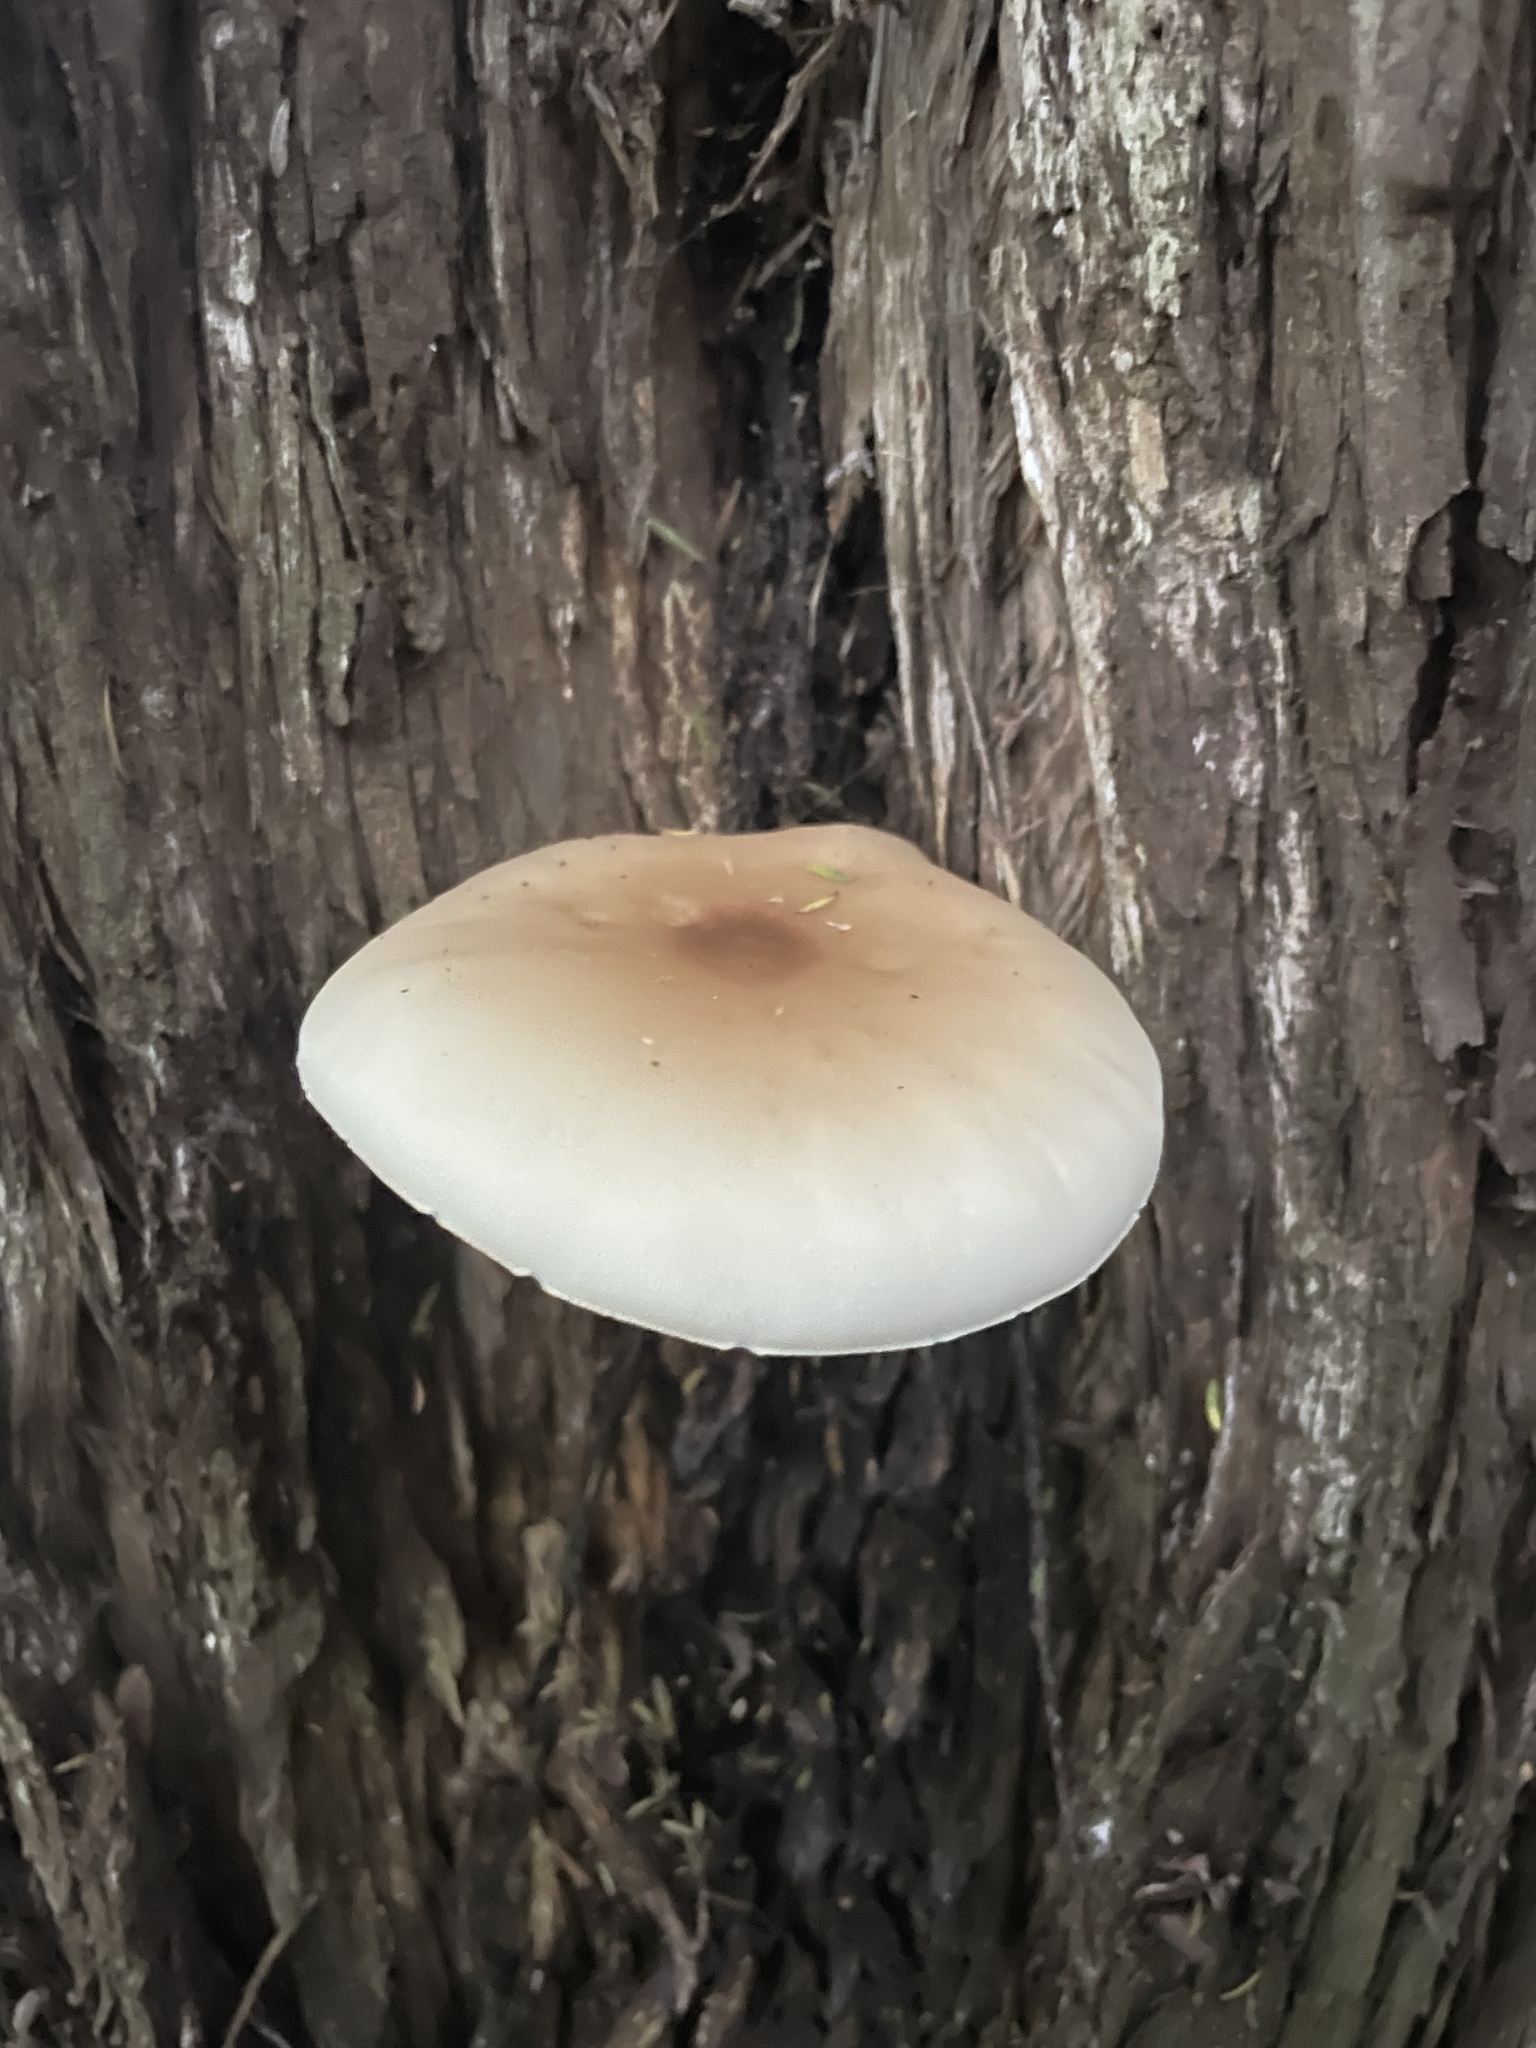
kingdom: Fungi
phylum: Basidiomycota
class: Agaricomycetes
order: Agaricales
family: Tubariaceae
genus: Cyclocybe
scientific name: Cyclocybe parasitica
